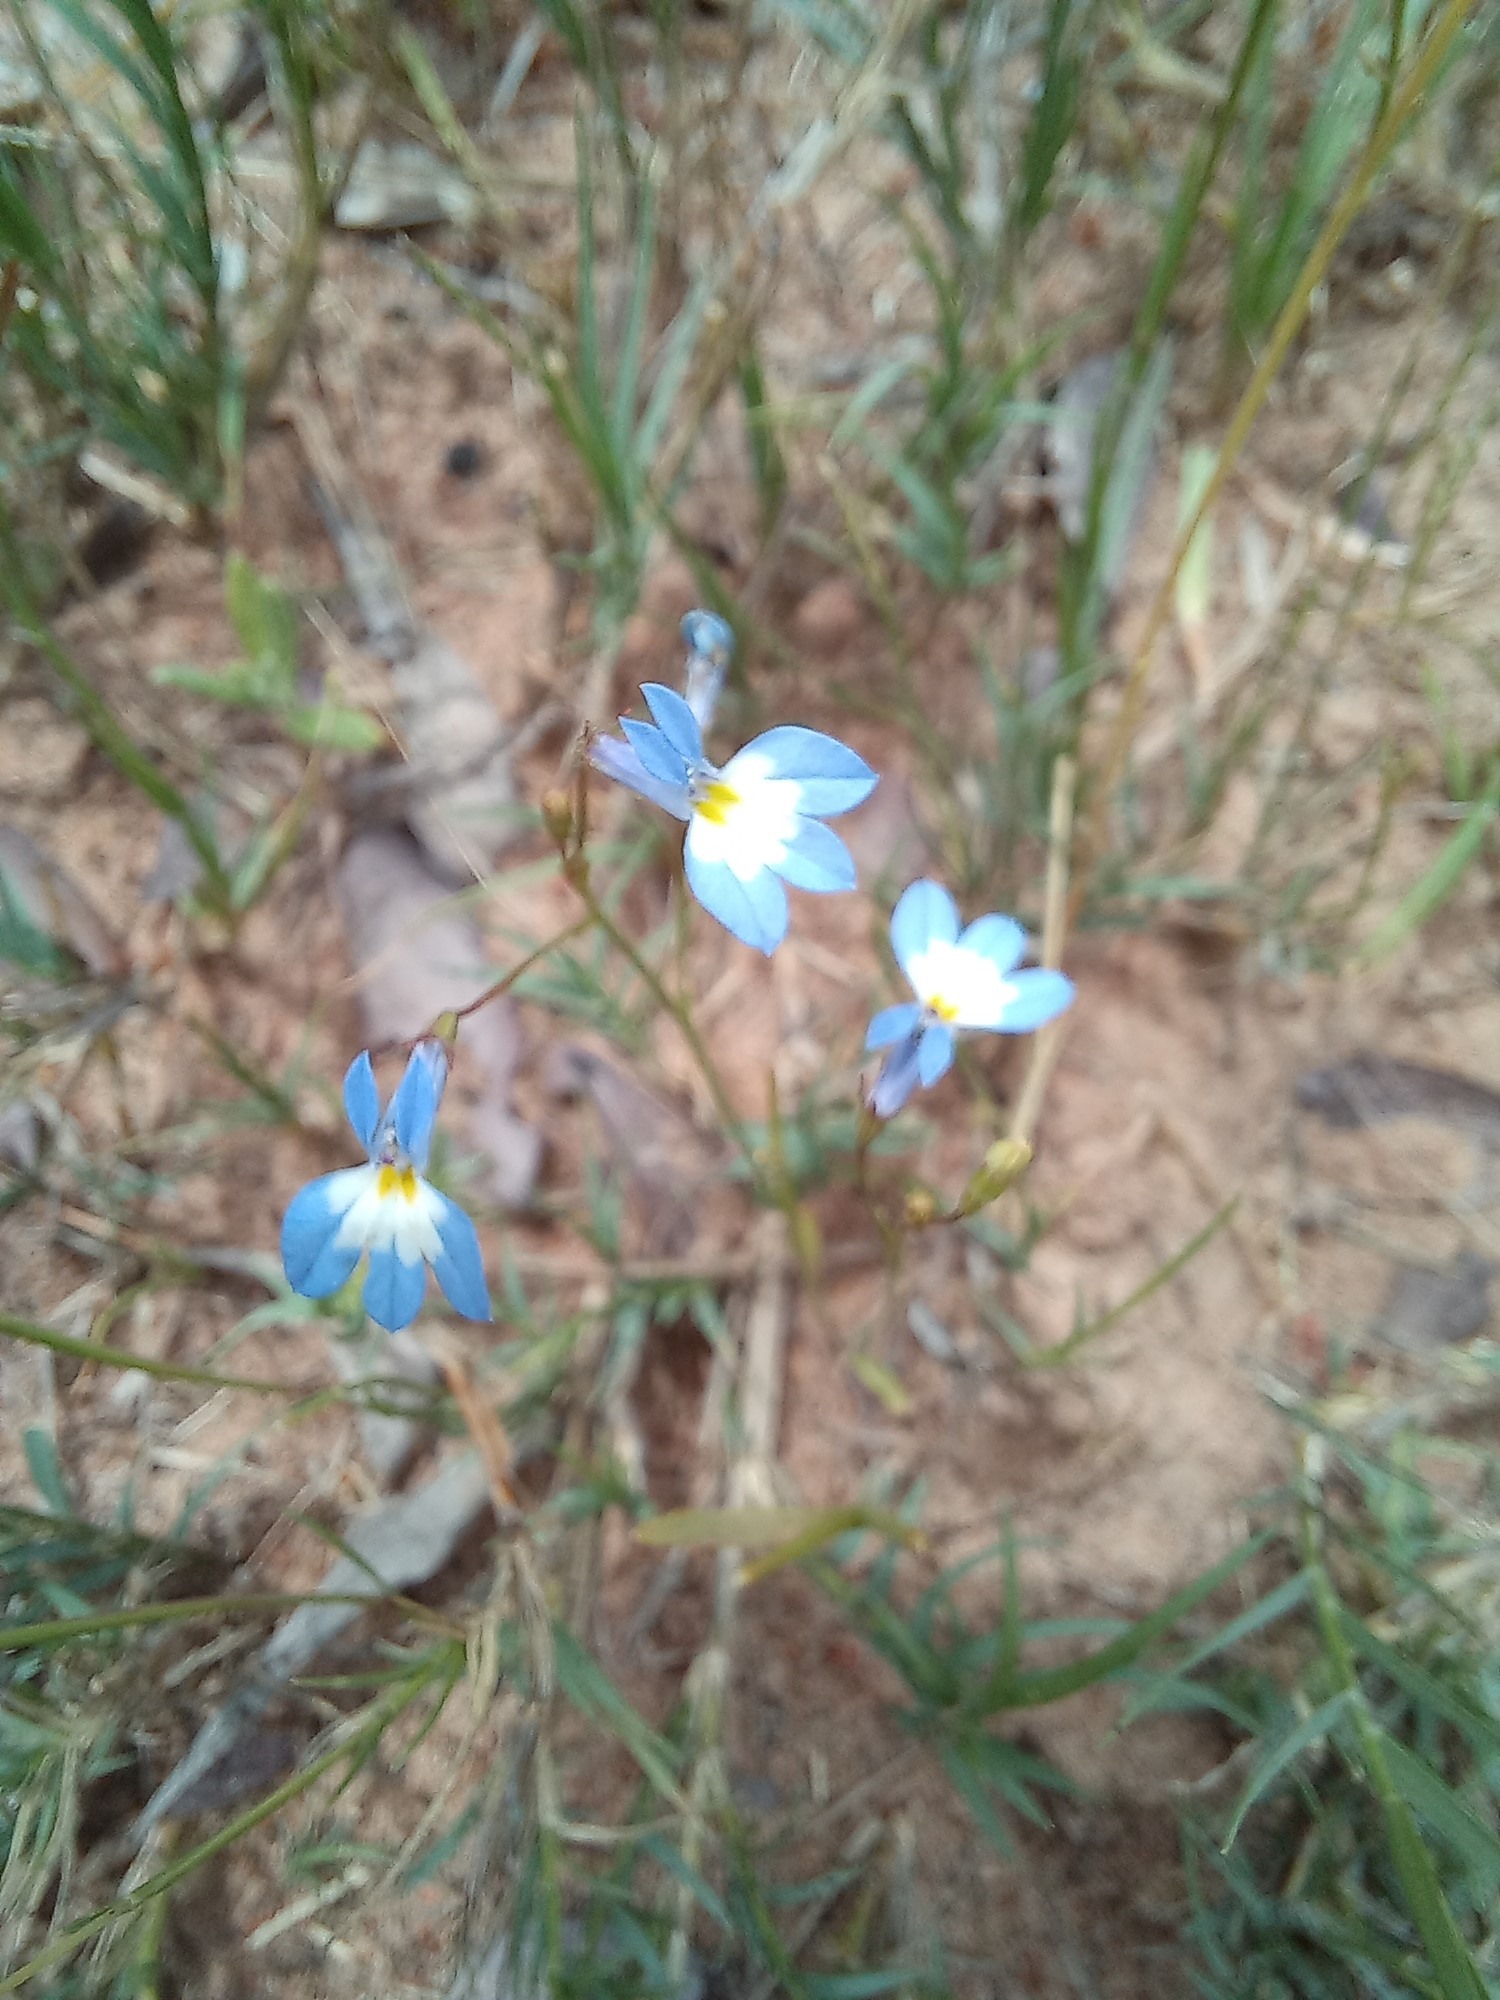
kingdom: Plantae
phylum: Tracheophyta
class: Magnoliopsida
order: Asterales
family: Campanulaceae
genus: Lobelia
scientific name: Lobelia erinus
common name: Edging lobelia
